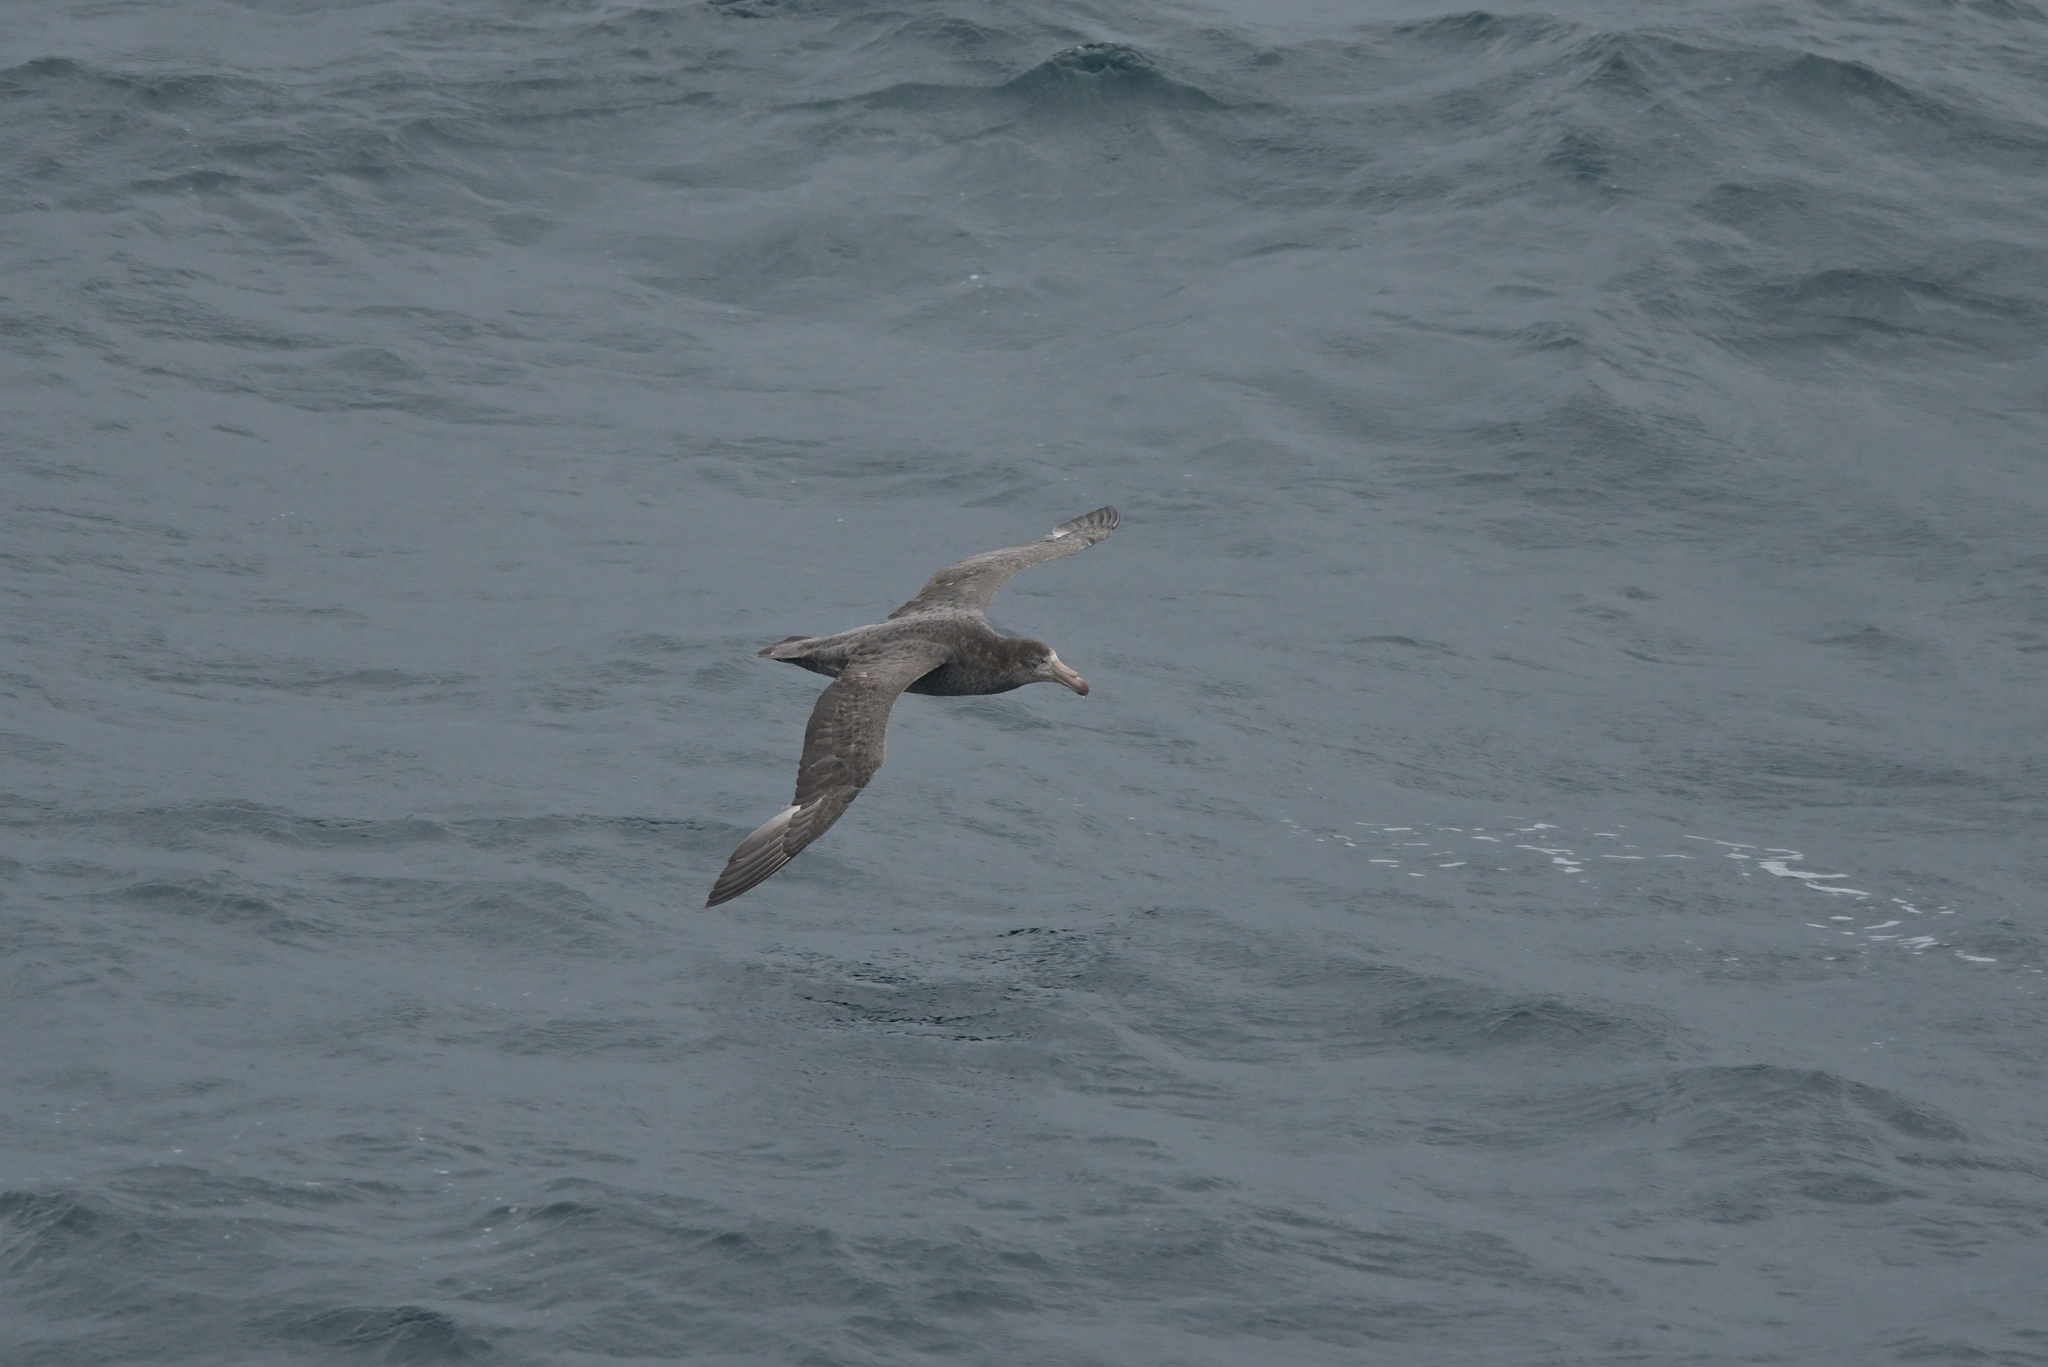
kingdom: Animalia
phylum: Chordata
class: Aves
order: Procellariiformes
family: Procellariidae
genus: Macronectes
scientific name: Macronectes halli
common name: Northern giant petrel
